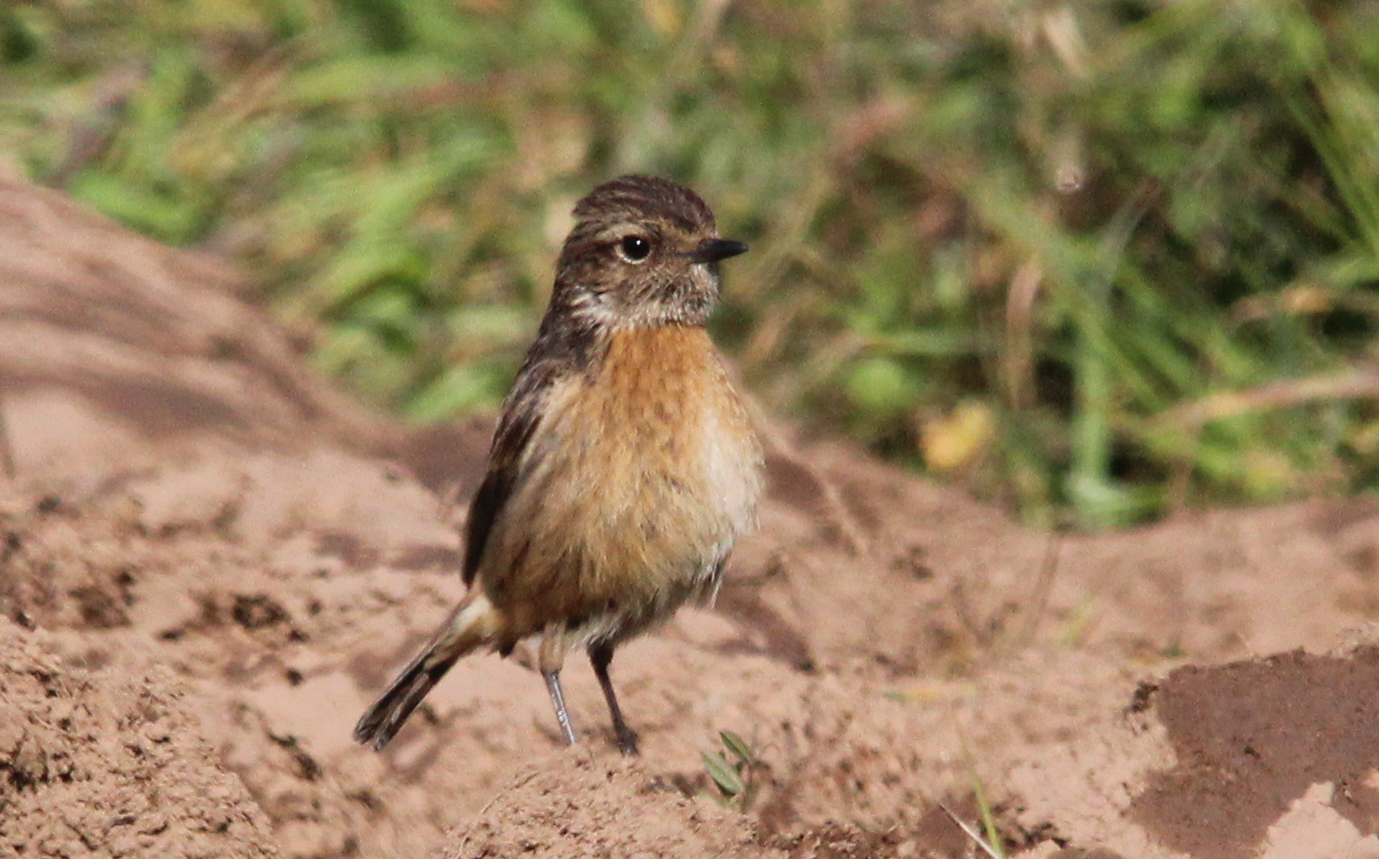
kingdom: Animalia
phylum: Chordata
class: Aves
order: Passeriformes
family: Muscicapidae
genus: Saxicola
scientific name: Saxicola rubicola
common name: European stonechat
